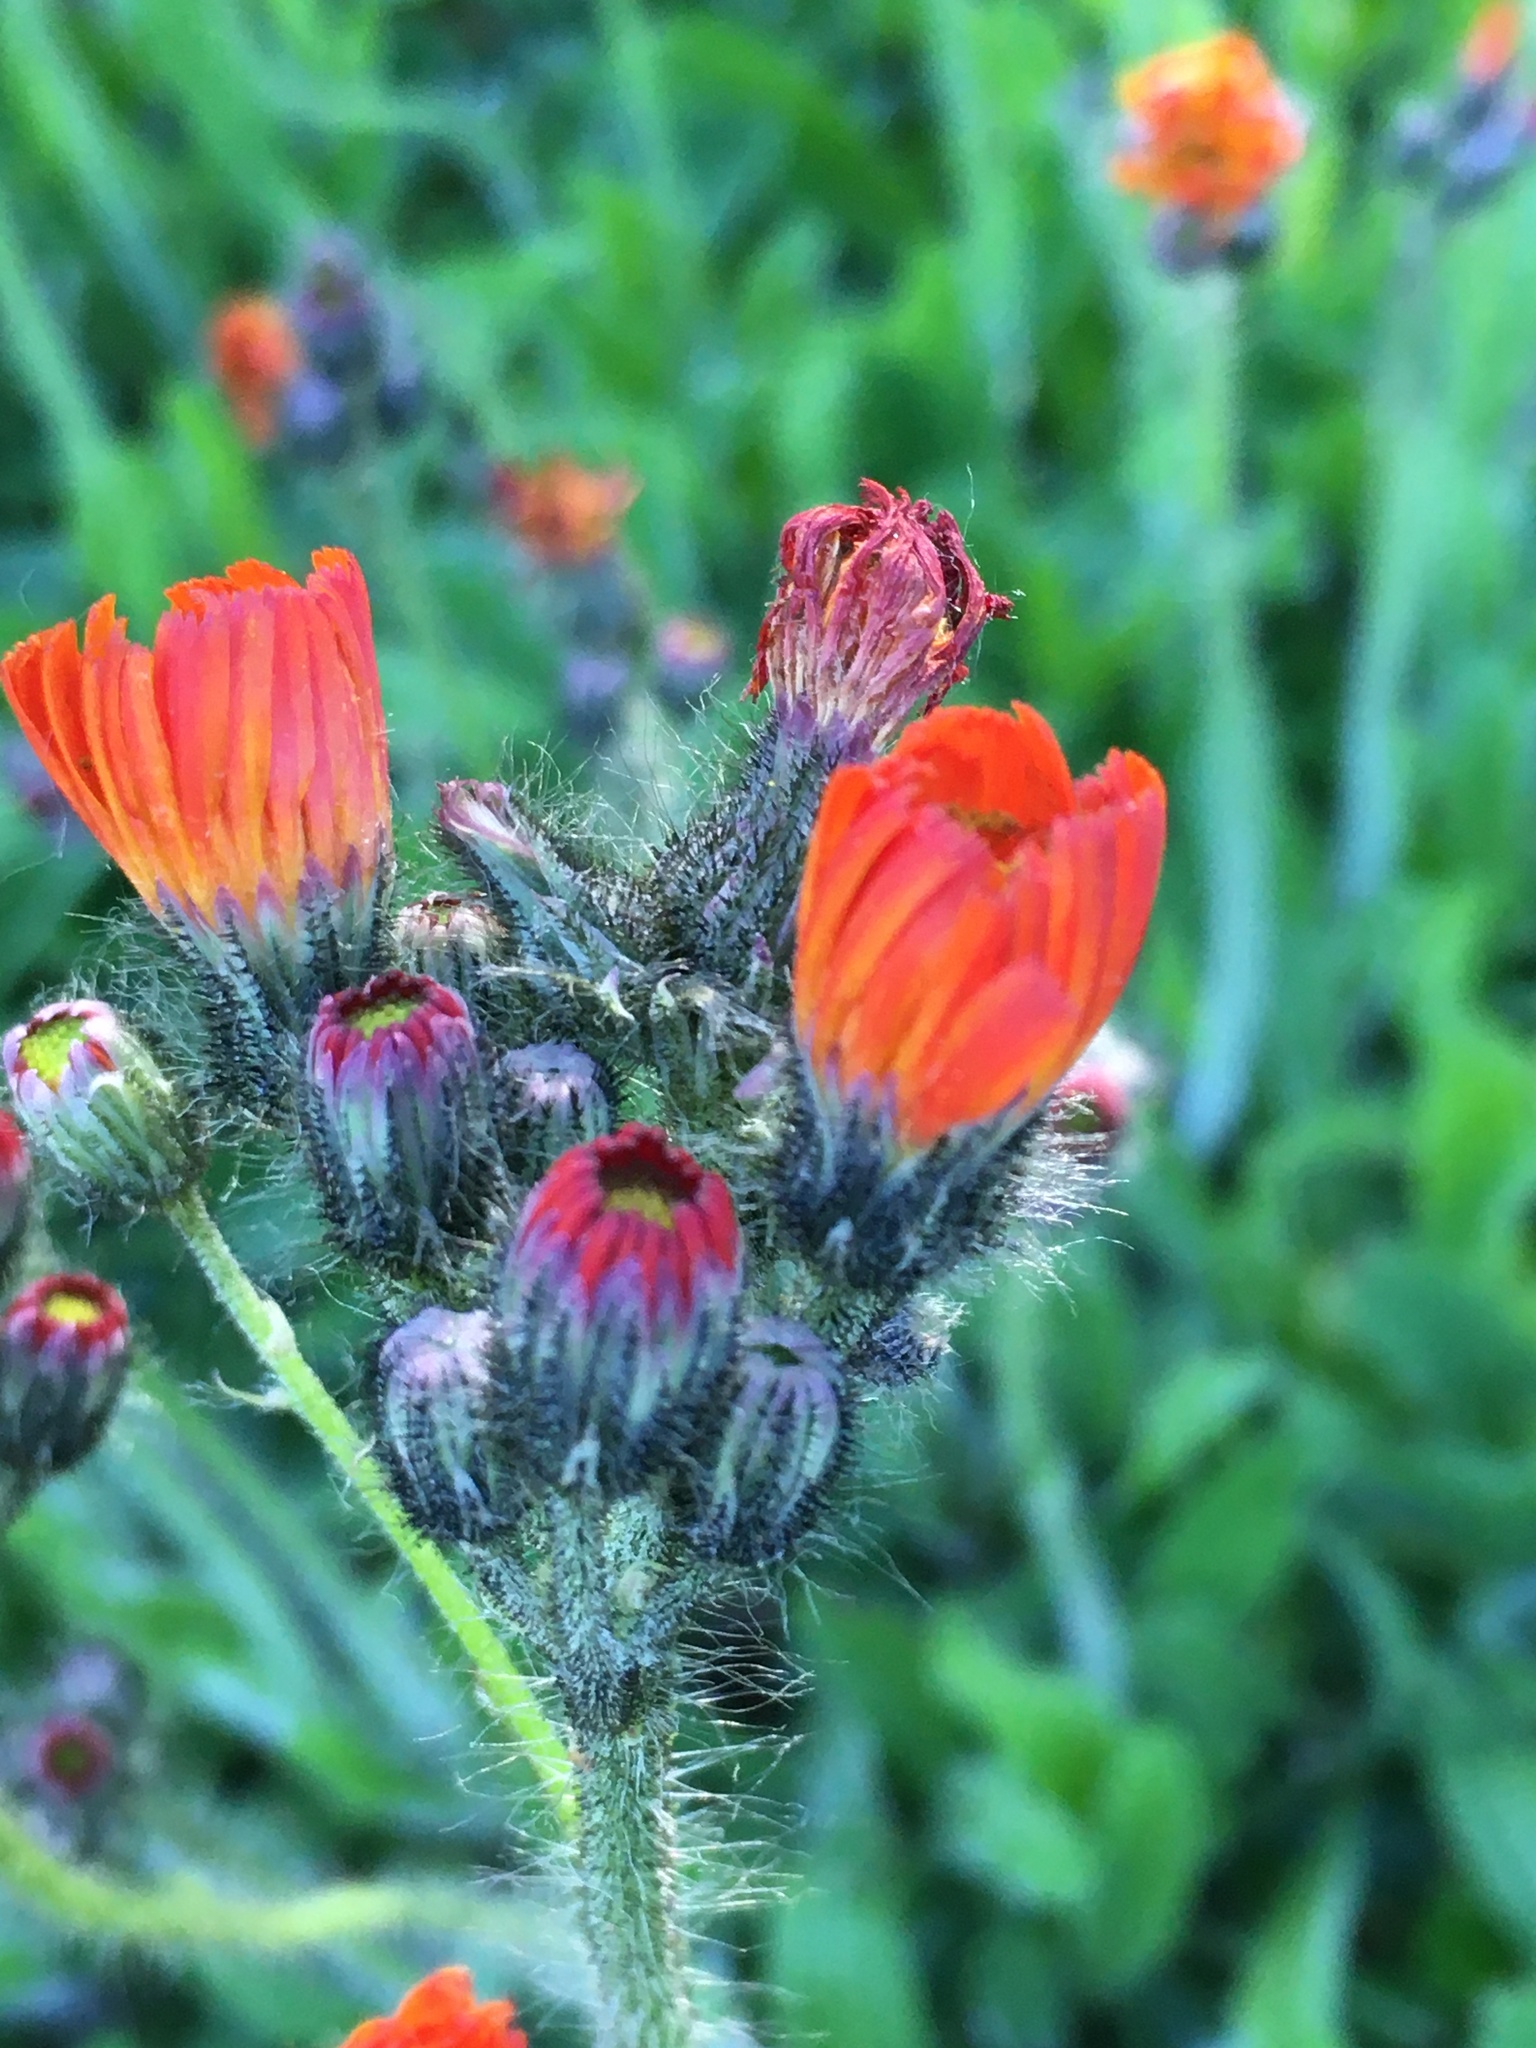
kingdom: Plantae
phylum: Tracheophyta
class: Magnoliopsida
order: Asterales
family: Asteraceae
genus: Pilosella
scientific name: Pilosella aurantiaca
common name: Fox-and-cubs
